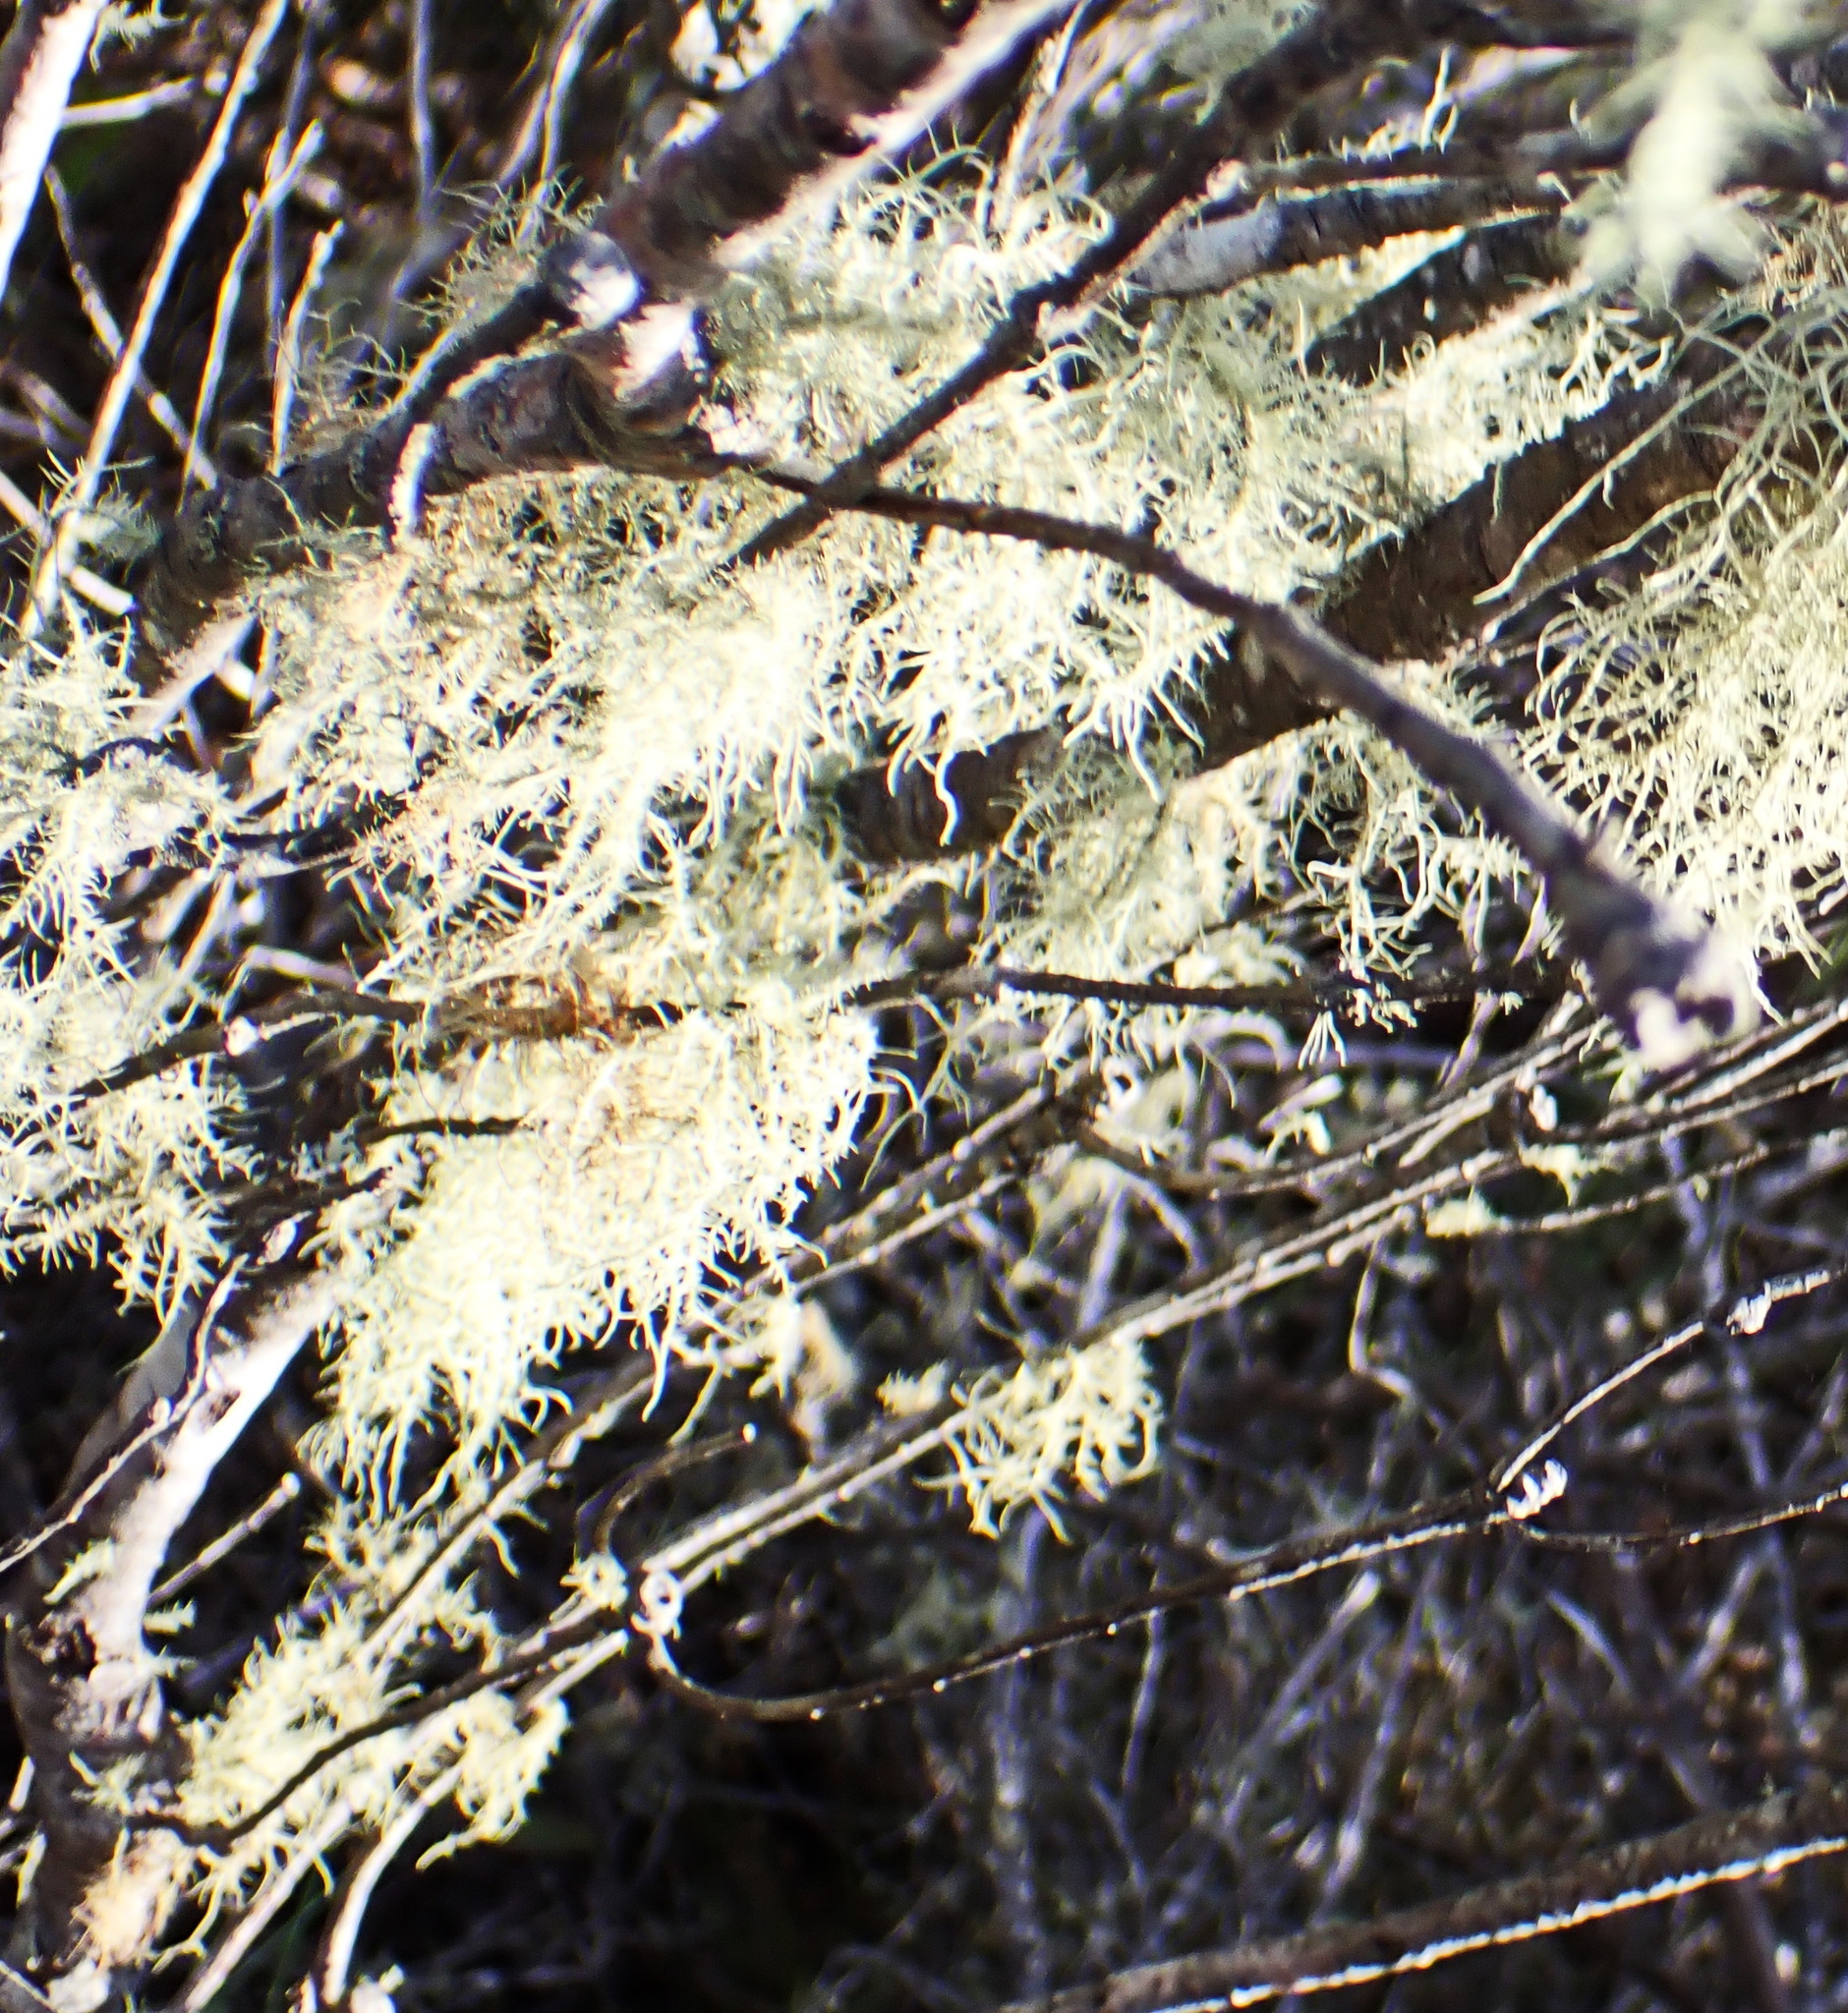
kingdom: Fungi
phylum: Ascomycota
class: Lecanoromycetes
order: Lecanorales
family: Parmeliaceae
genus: Usnea
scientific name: Usnea barbata
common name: Old man's beard lichen
